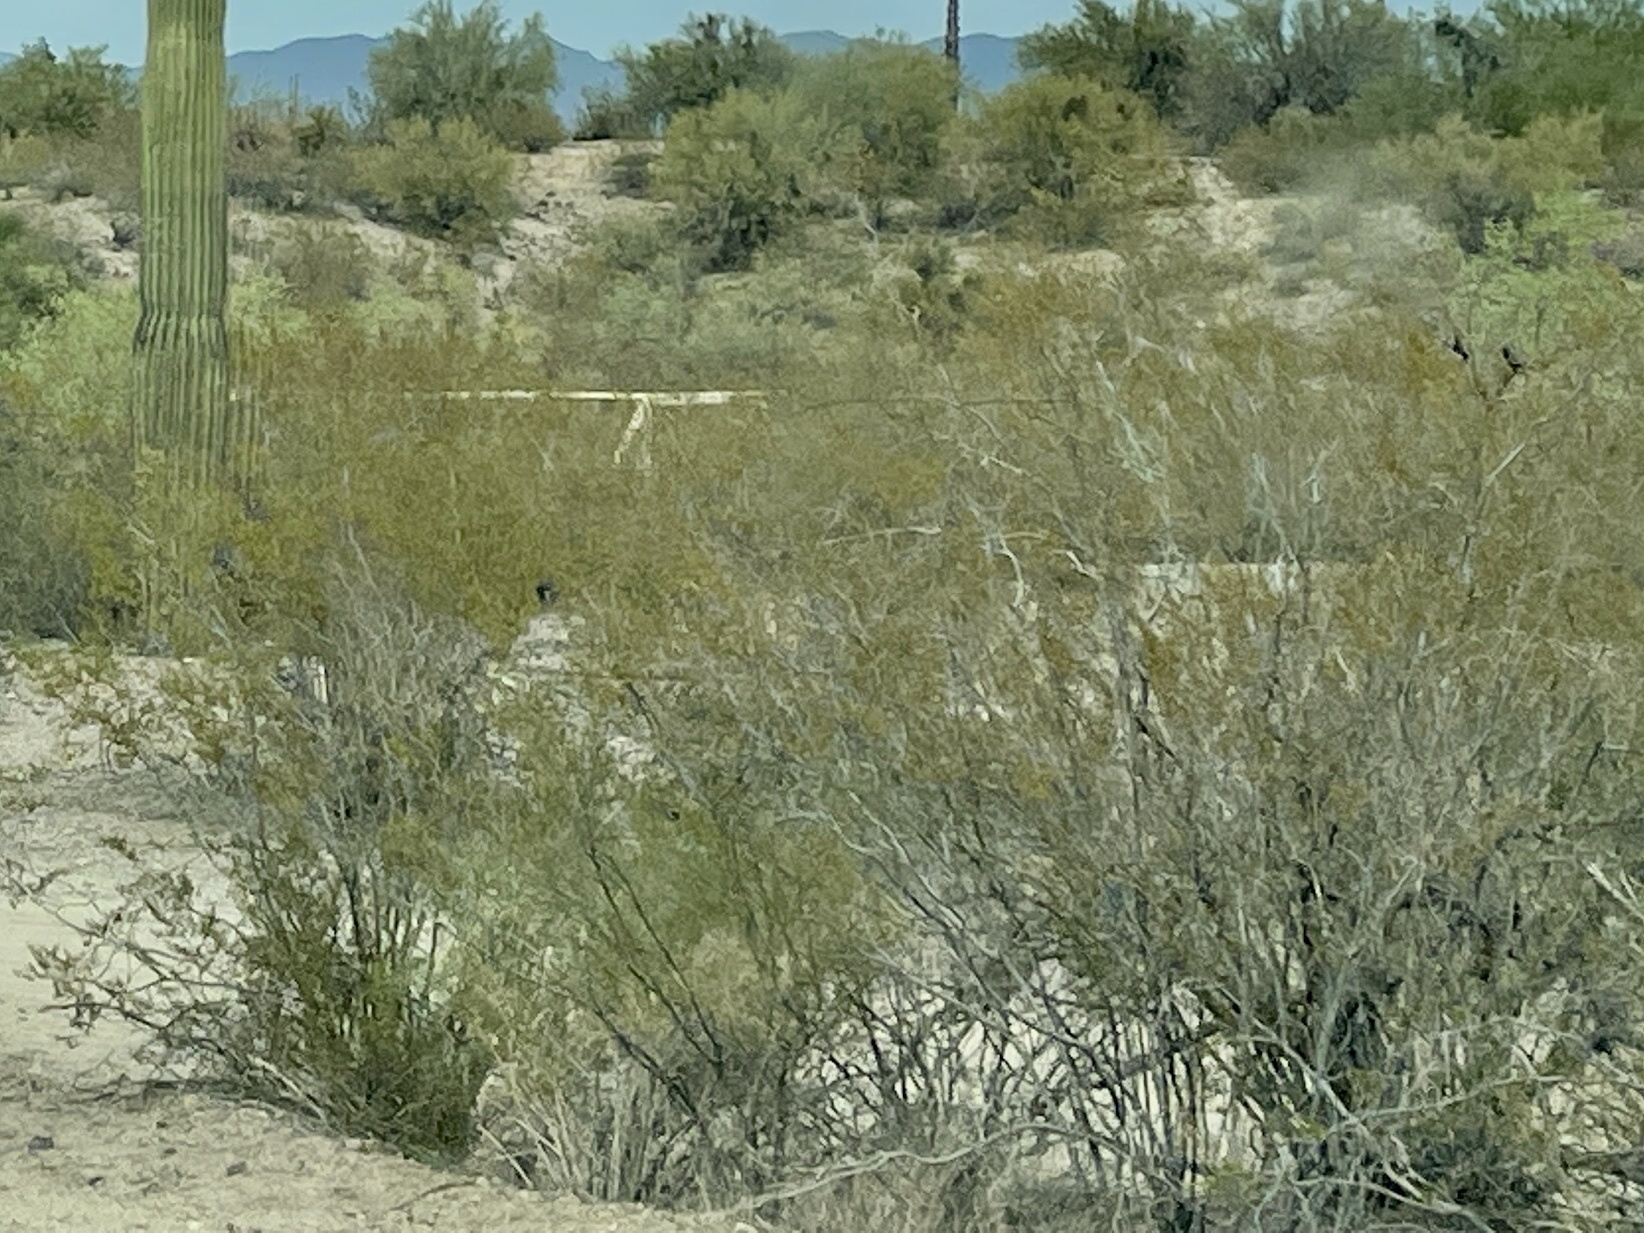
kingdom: Plantae
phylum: Tracheophyta
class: Magnoliopsida
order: Zygophyllales
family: Zygophyllaceae
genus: Larrea
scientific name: Larrea tridentata
